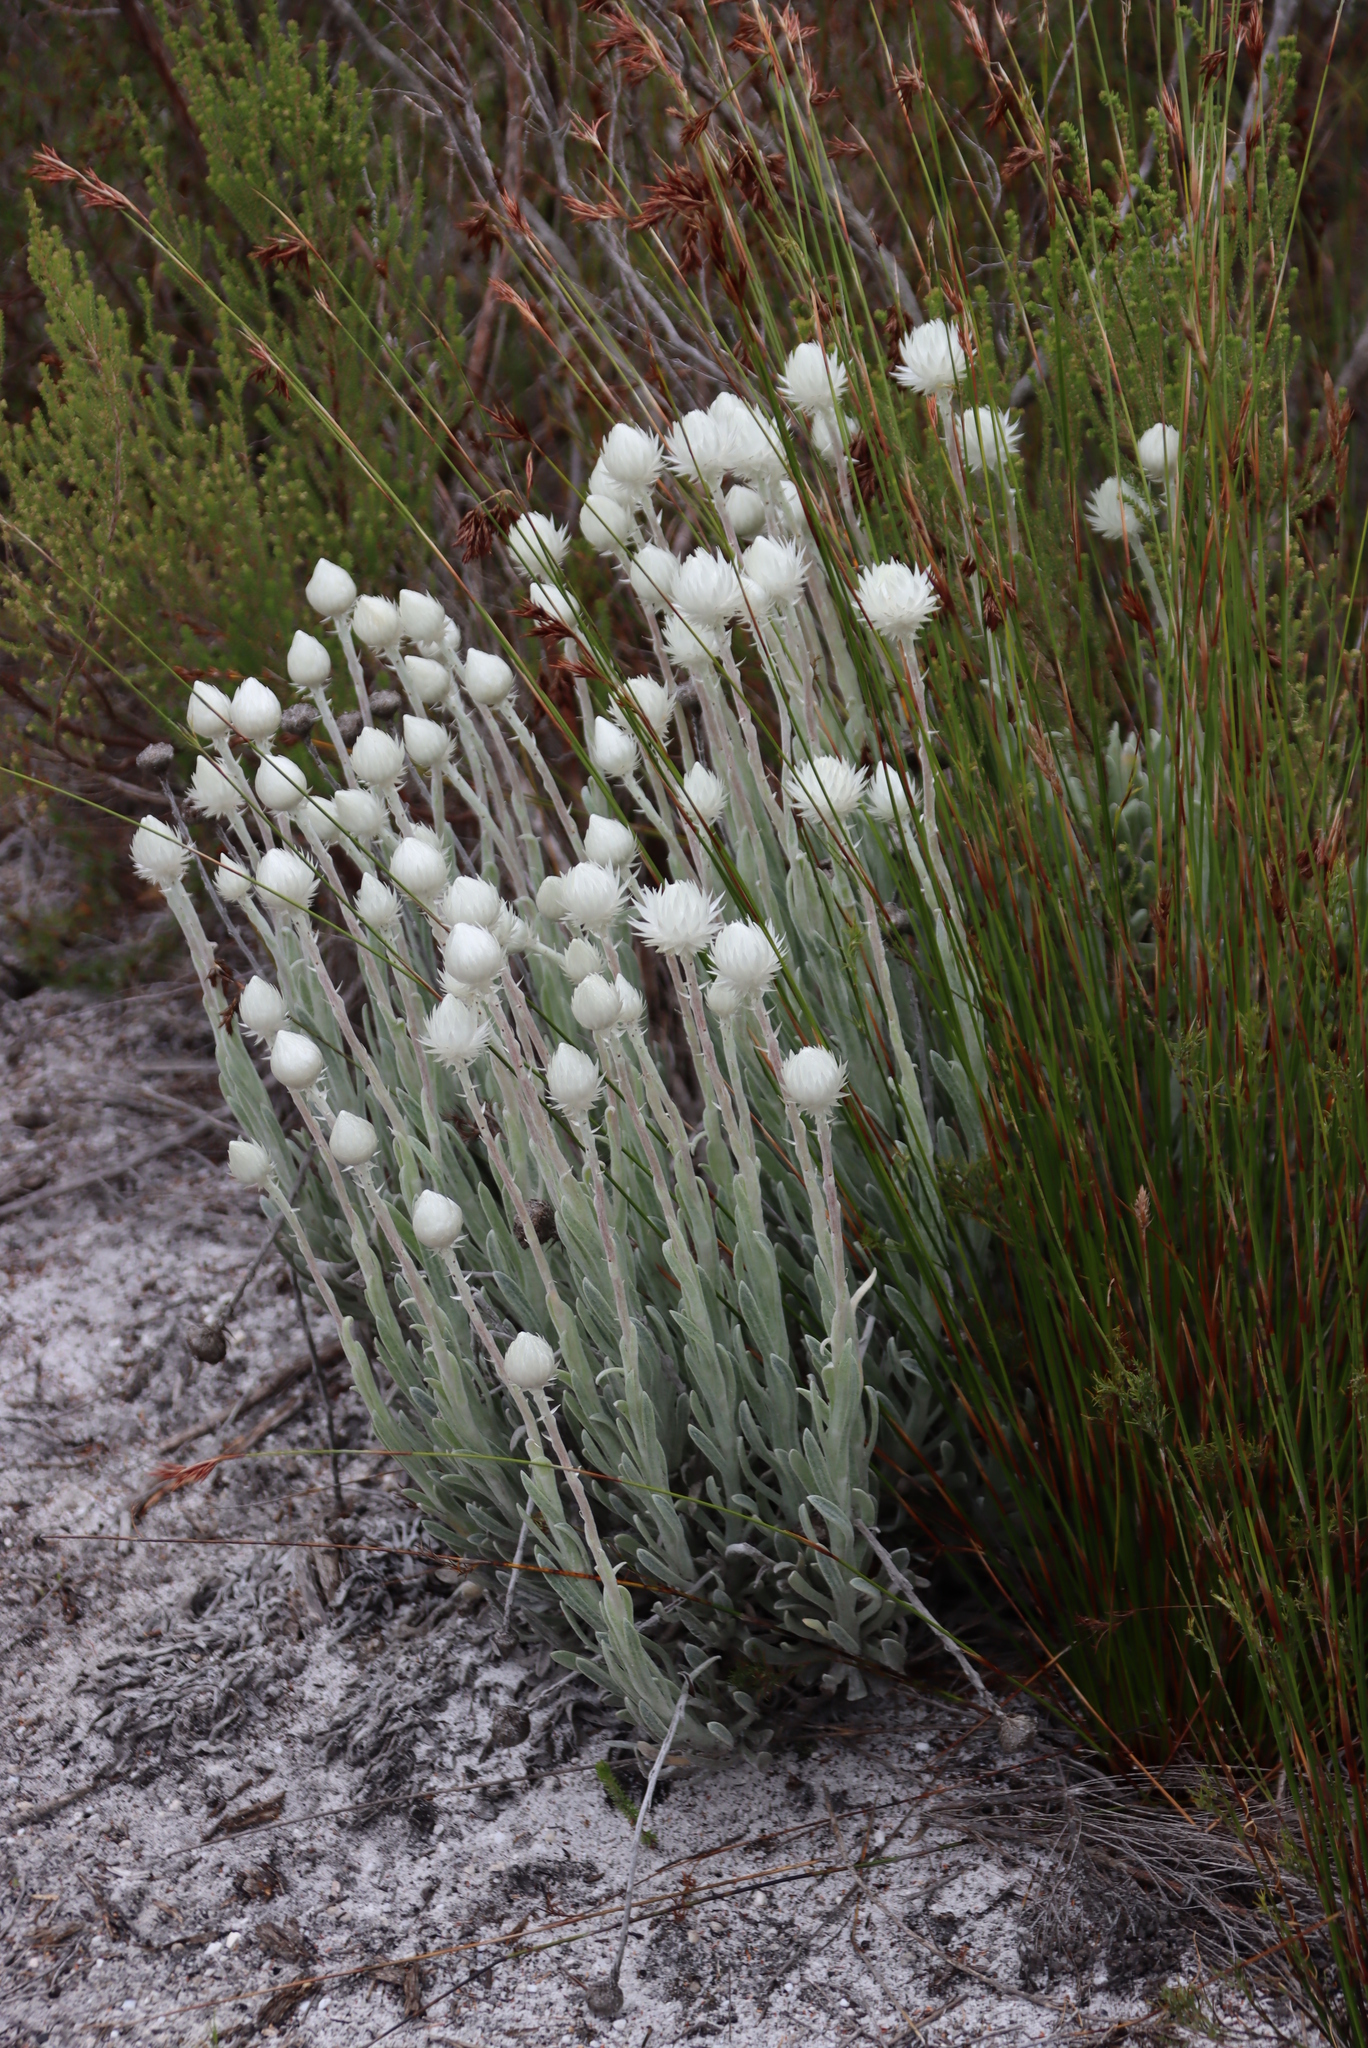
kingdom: Plantae
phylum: Tracheophyta
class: Magnoliopsida
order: Asterales
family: Asteraceae
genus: Syncarpha
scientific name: Syncarpha vestita
